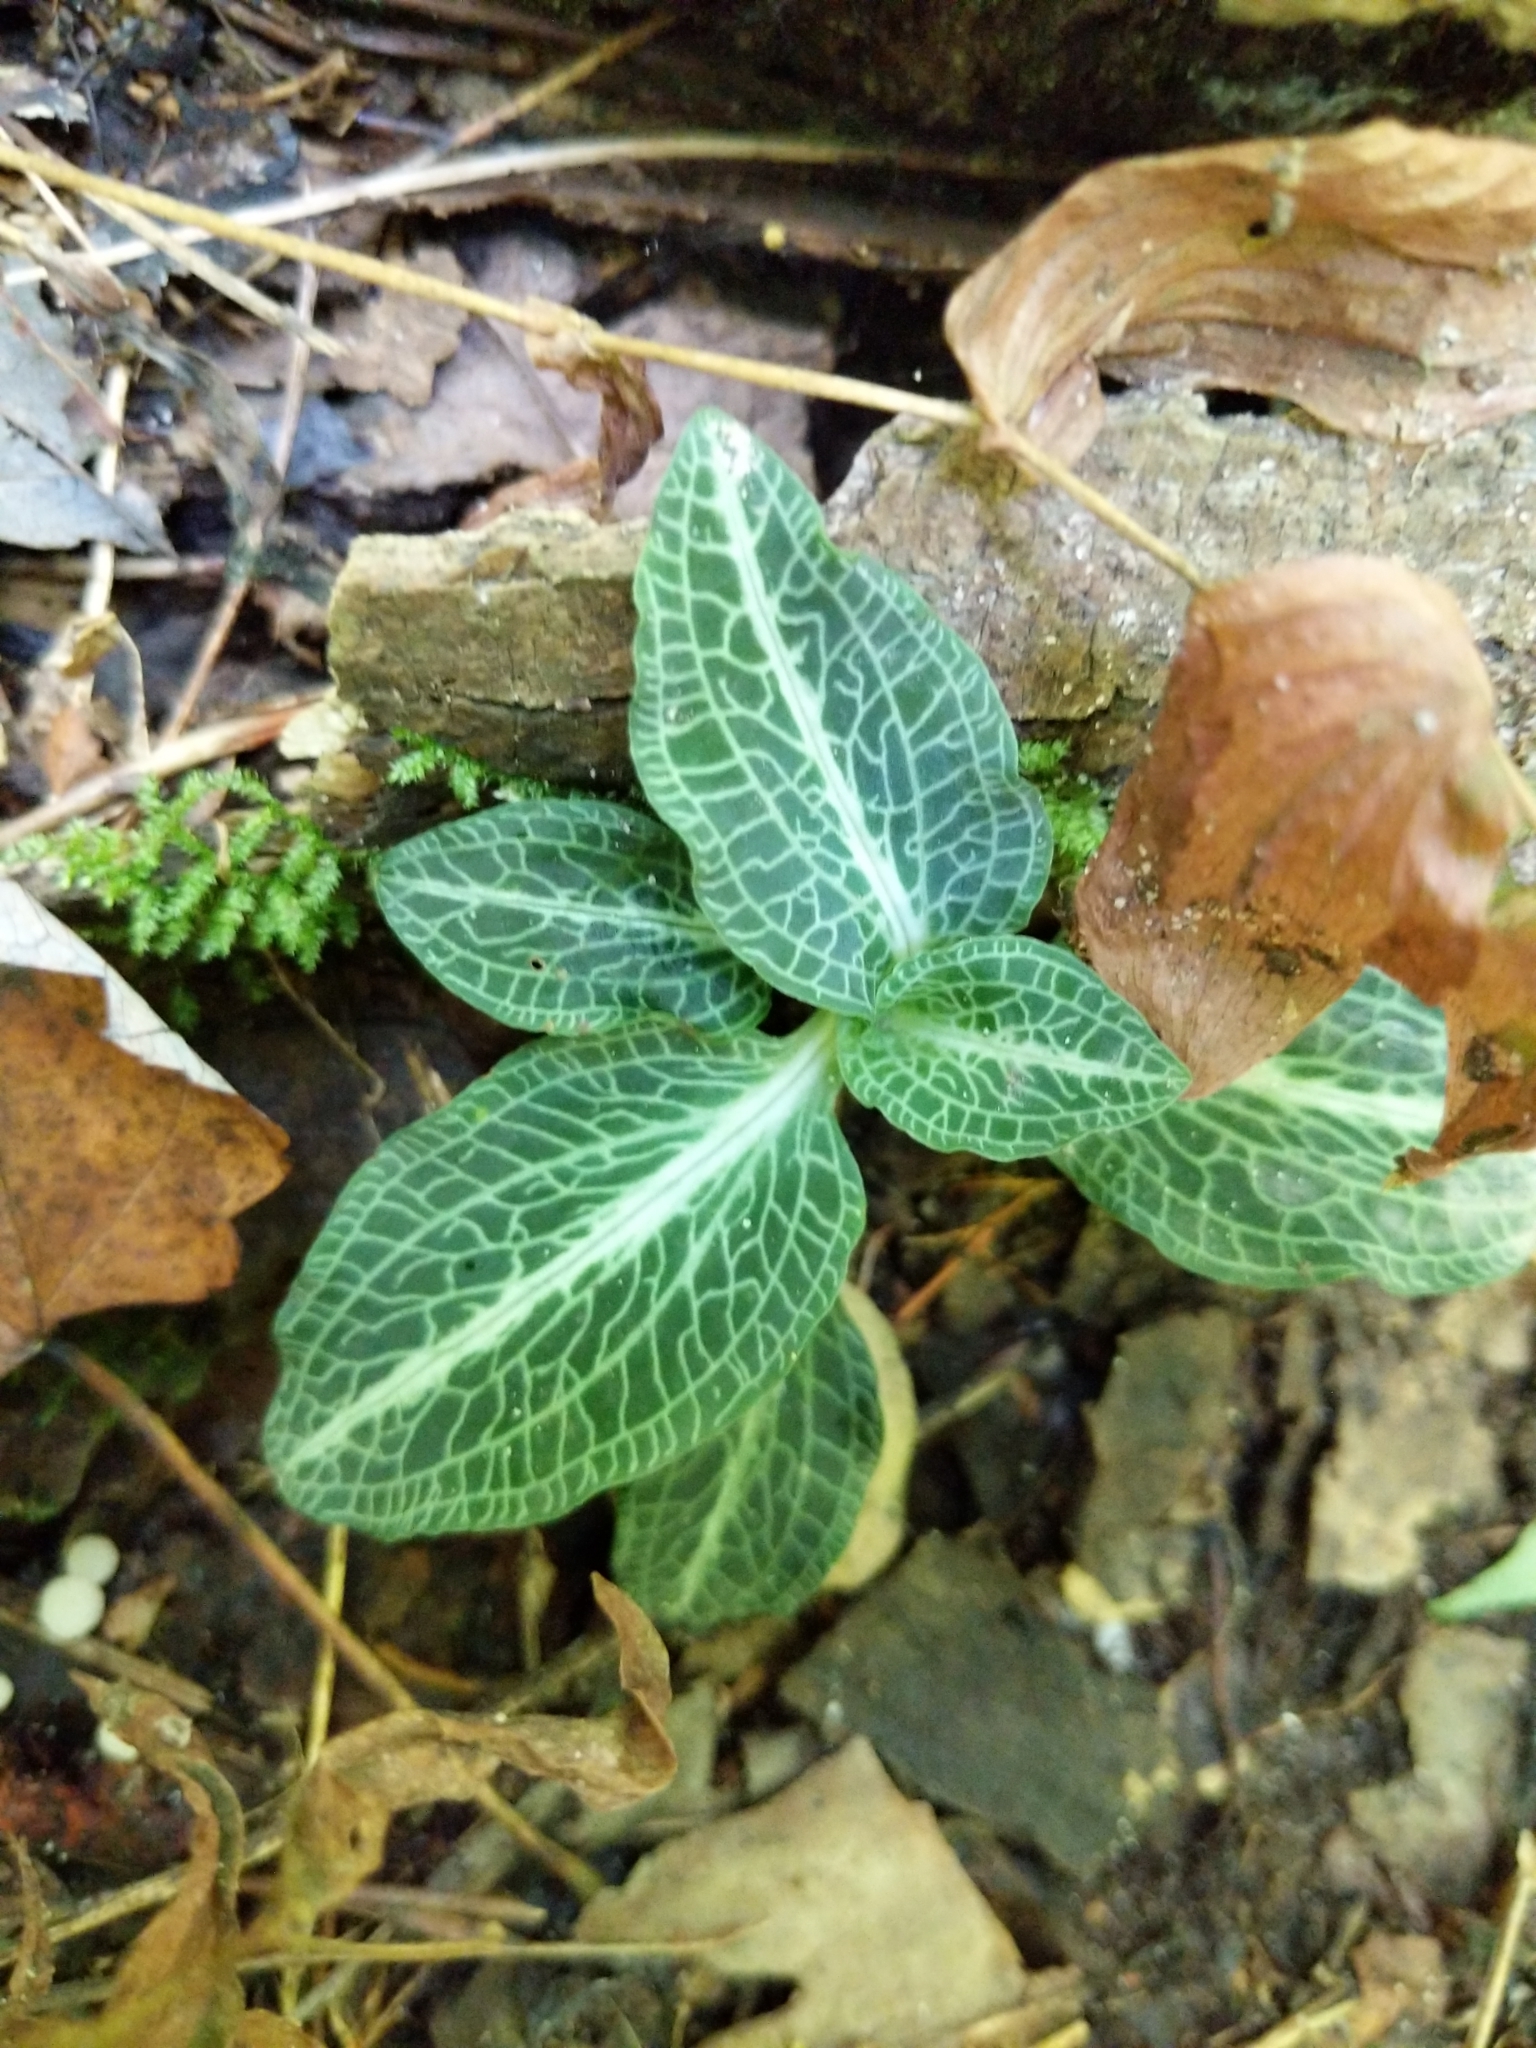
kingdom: Plantae
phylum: Tracheophyta
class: Liliopsida
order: Asparagales
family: Orchidaceae
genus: Goodyera
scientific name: Goodyera pubescens
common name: Downy rattlesnake-plantain
